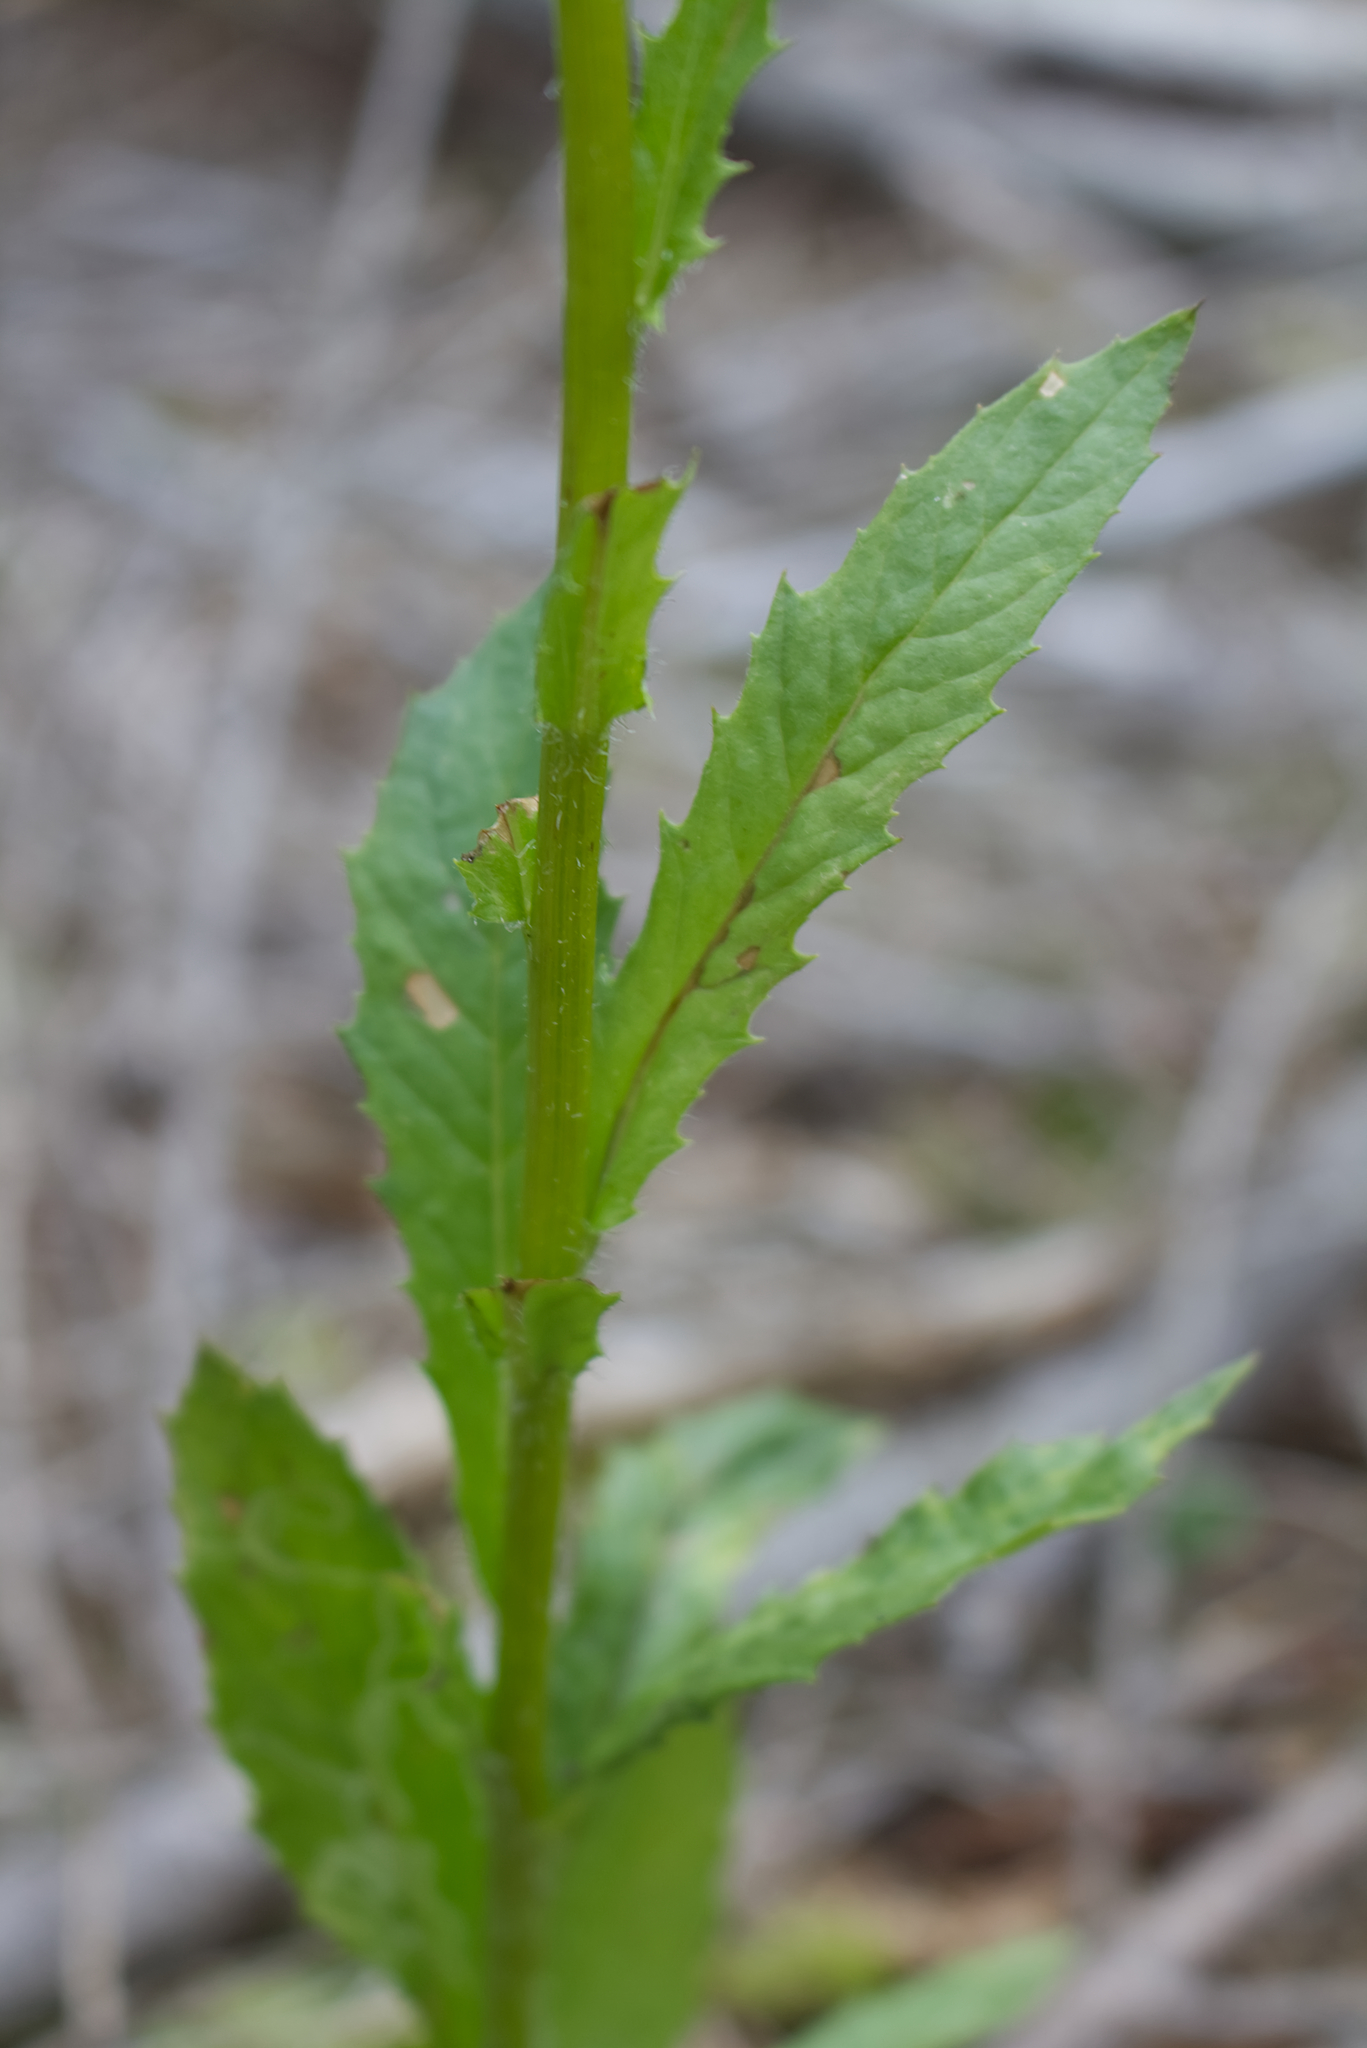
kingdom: Plantae
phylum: Tracheophyta
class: Magnoliopsida
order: Asterales
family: Asteraceae
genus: Erechtites
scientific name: Erechtites hieraciifolius
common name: American burnweed
